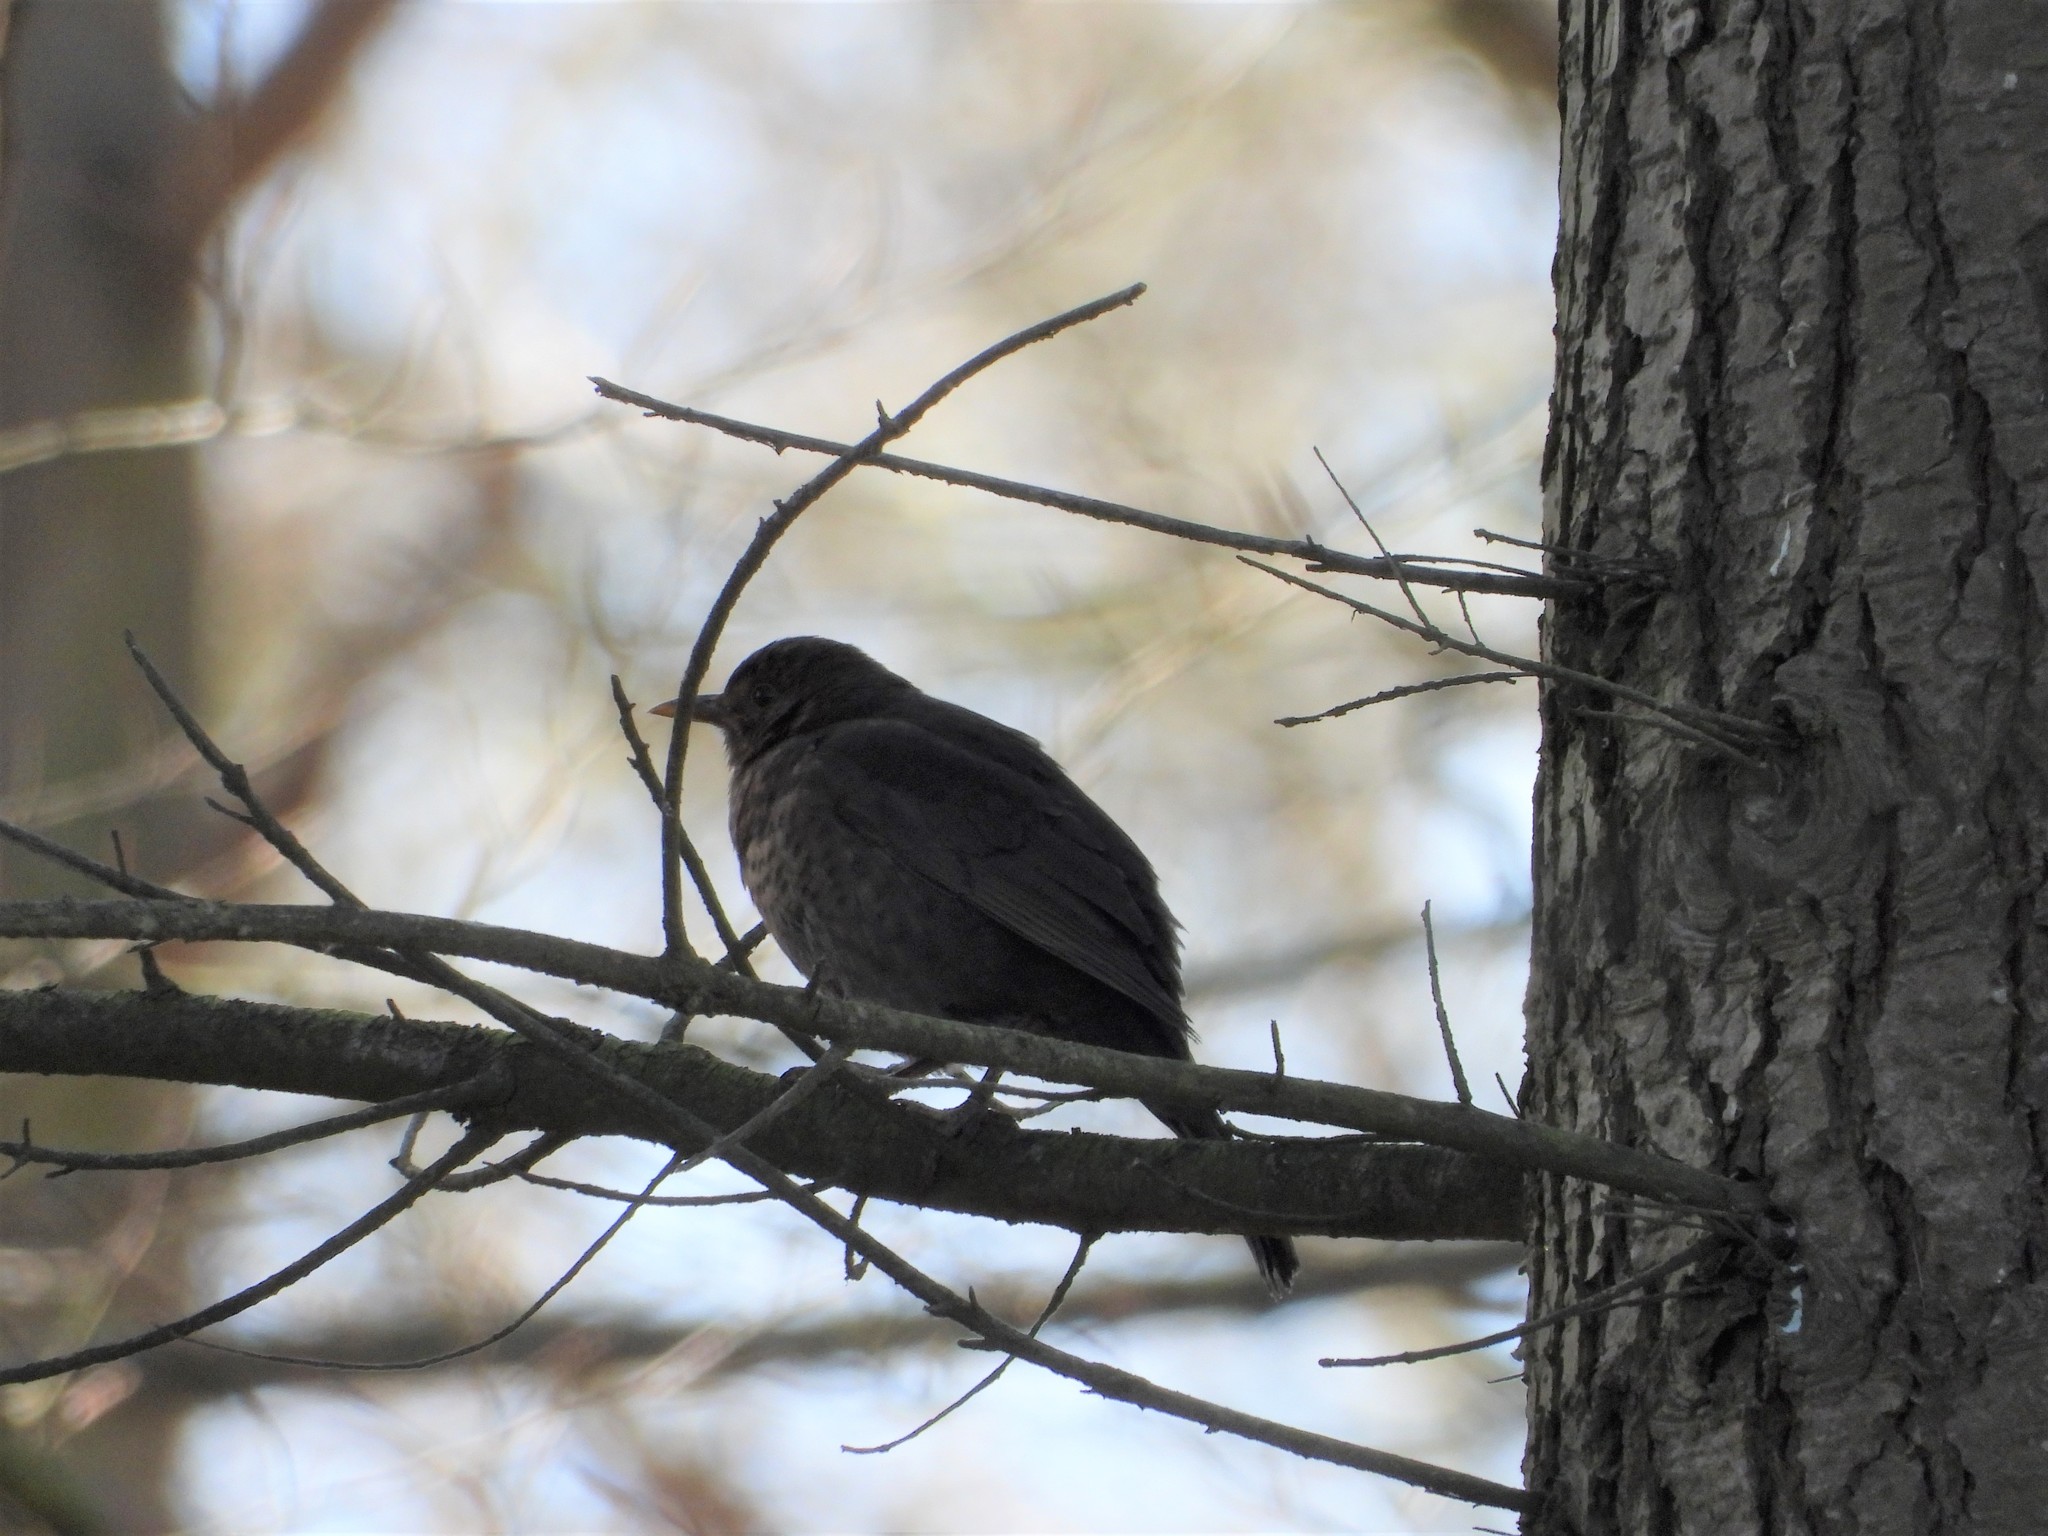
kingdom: Animalia
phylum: Chordata
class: Aves
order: Passeriformes
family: Turdidae
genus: Turdus
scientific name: Turdus merula
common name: Common blackbird
